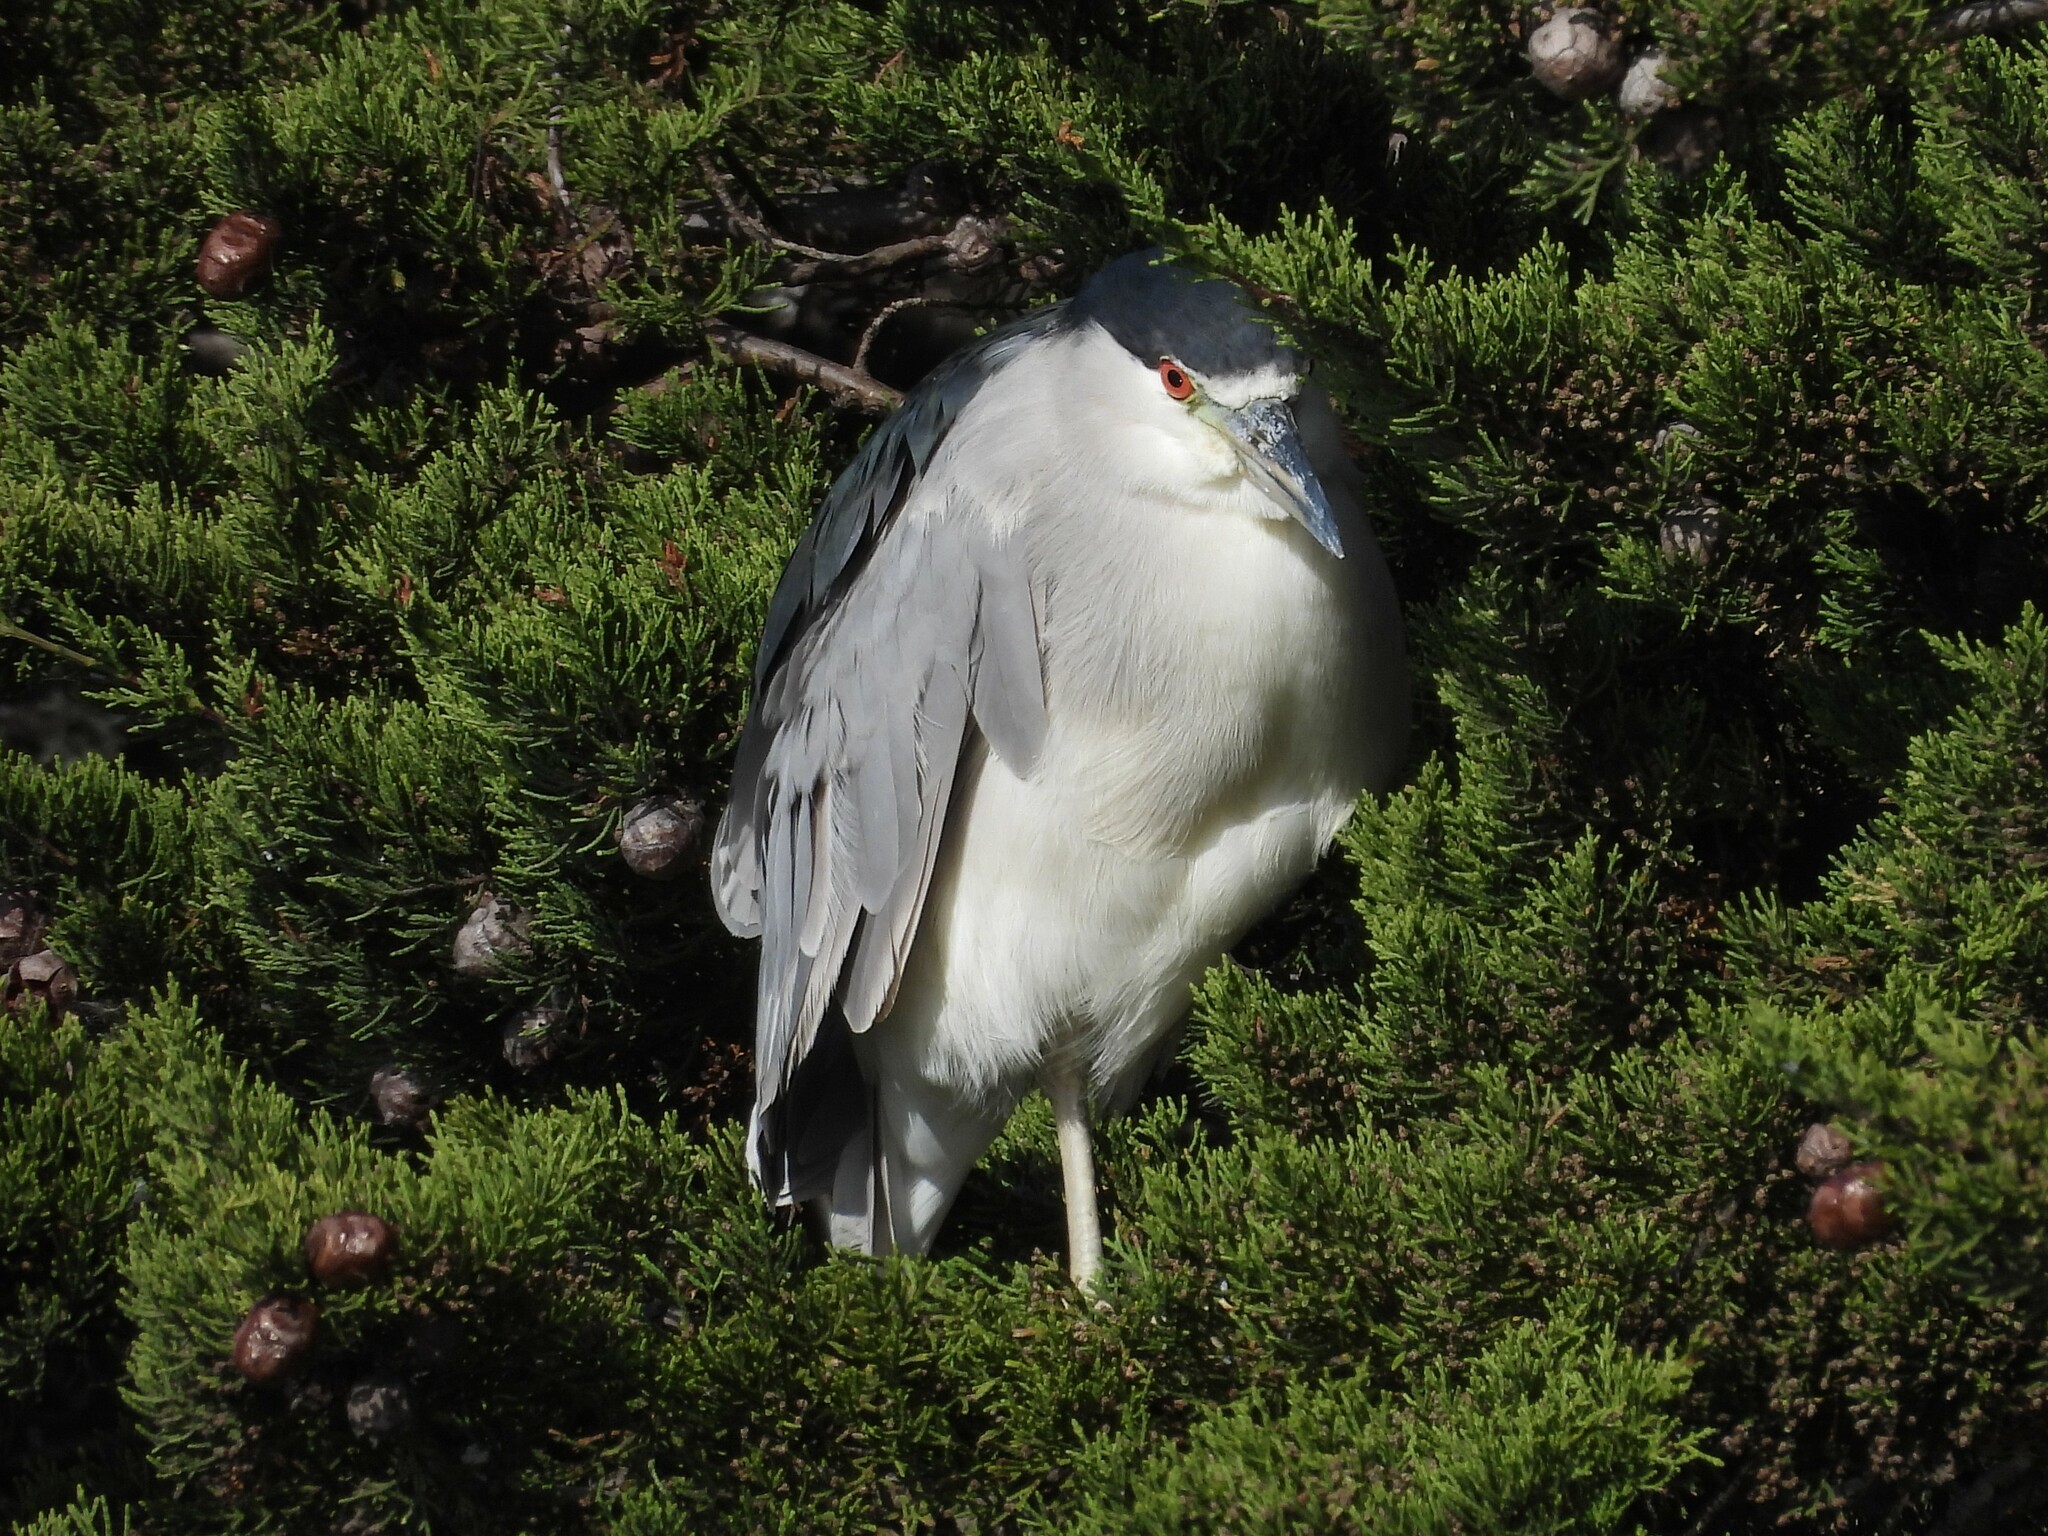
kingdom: Animalia
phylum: Chordata
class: Aves
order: Pelecaniformes
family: Ardeidae
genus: Nycticorax
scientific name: Nycticorax nycticorax
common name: Black-crowned night heron
